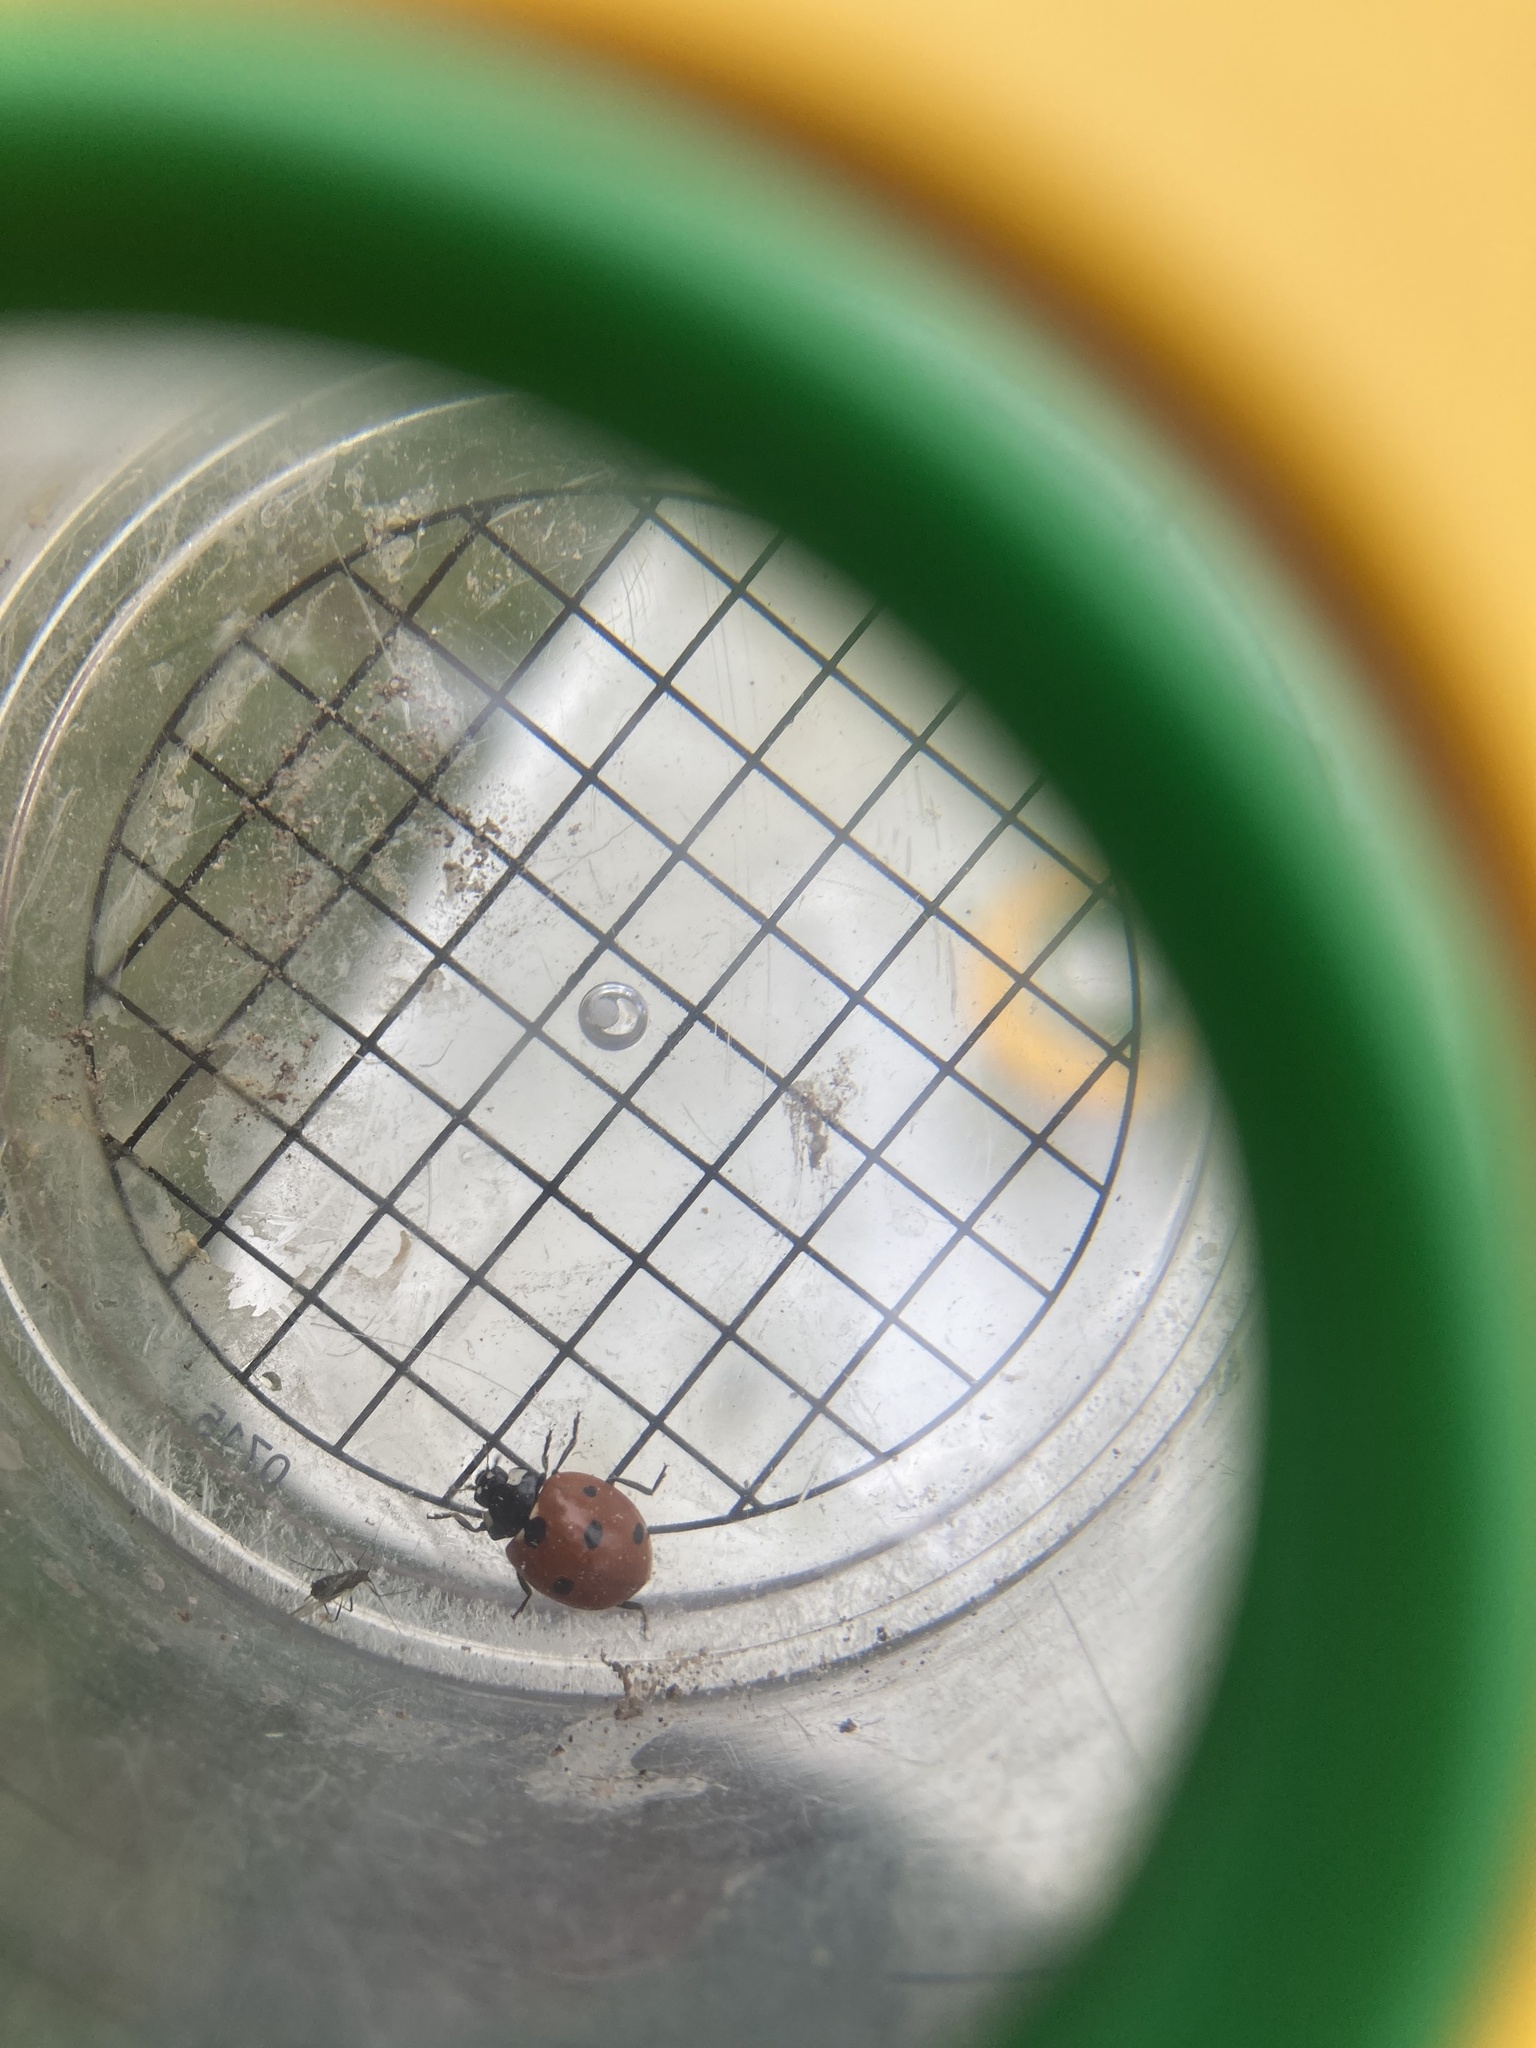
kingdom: Animalia
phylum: Arthropoda
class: Insecta
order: Coleoptera
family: Coccinellidae
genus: Coccinella
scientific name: Coccinella septempunctata
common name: Sevenspotted lady beetle
